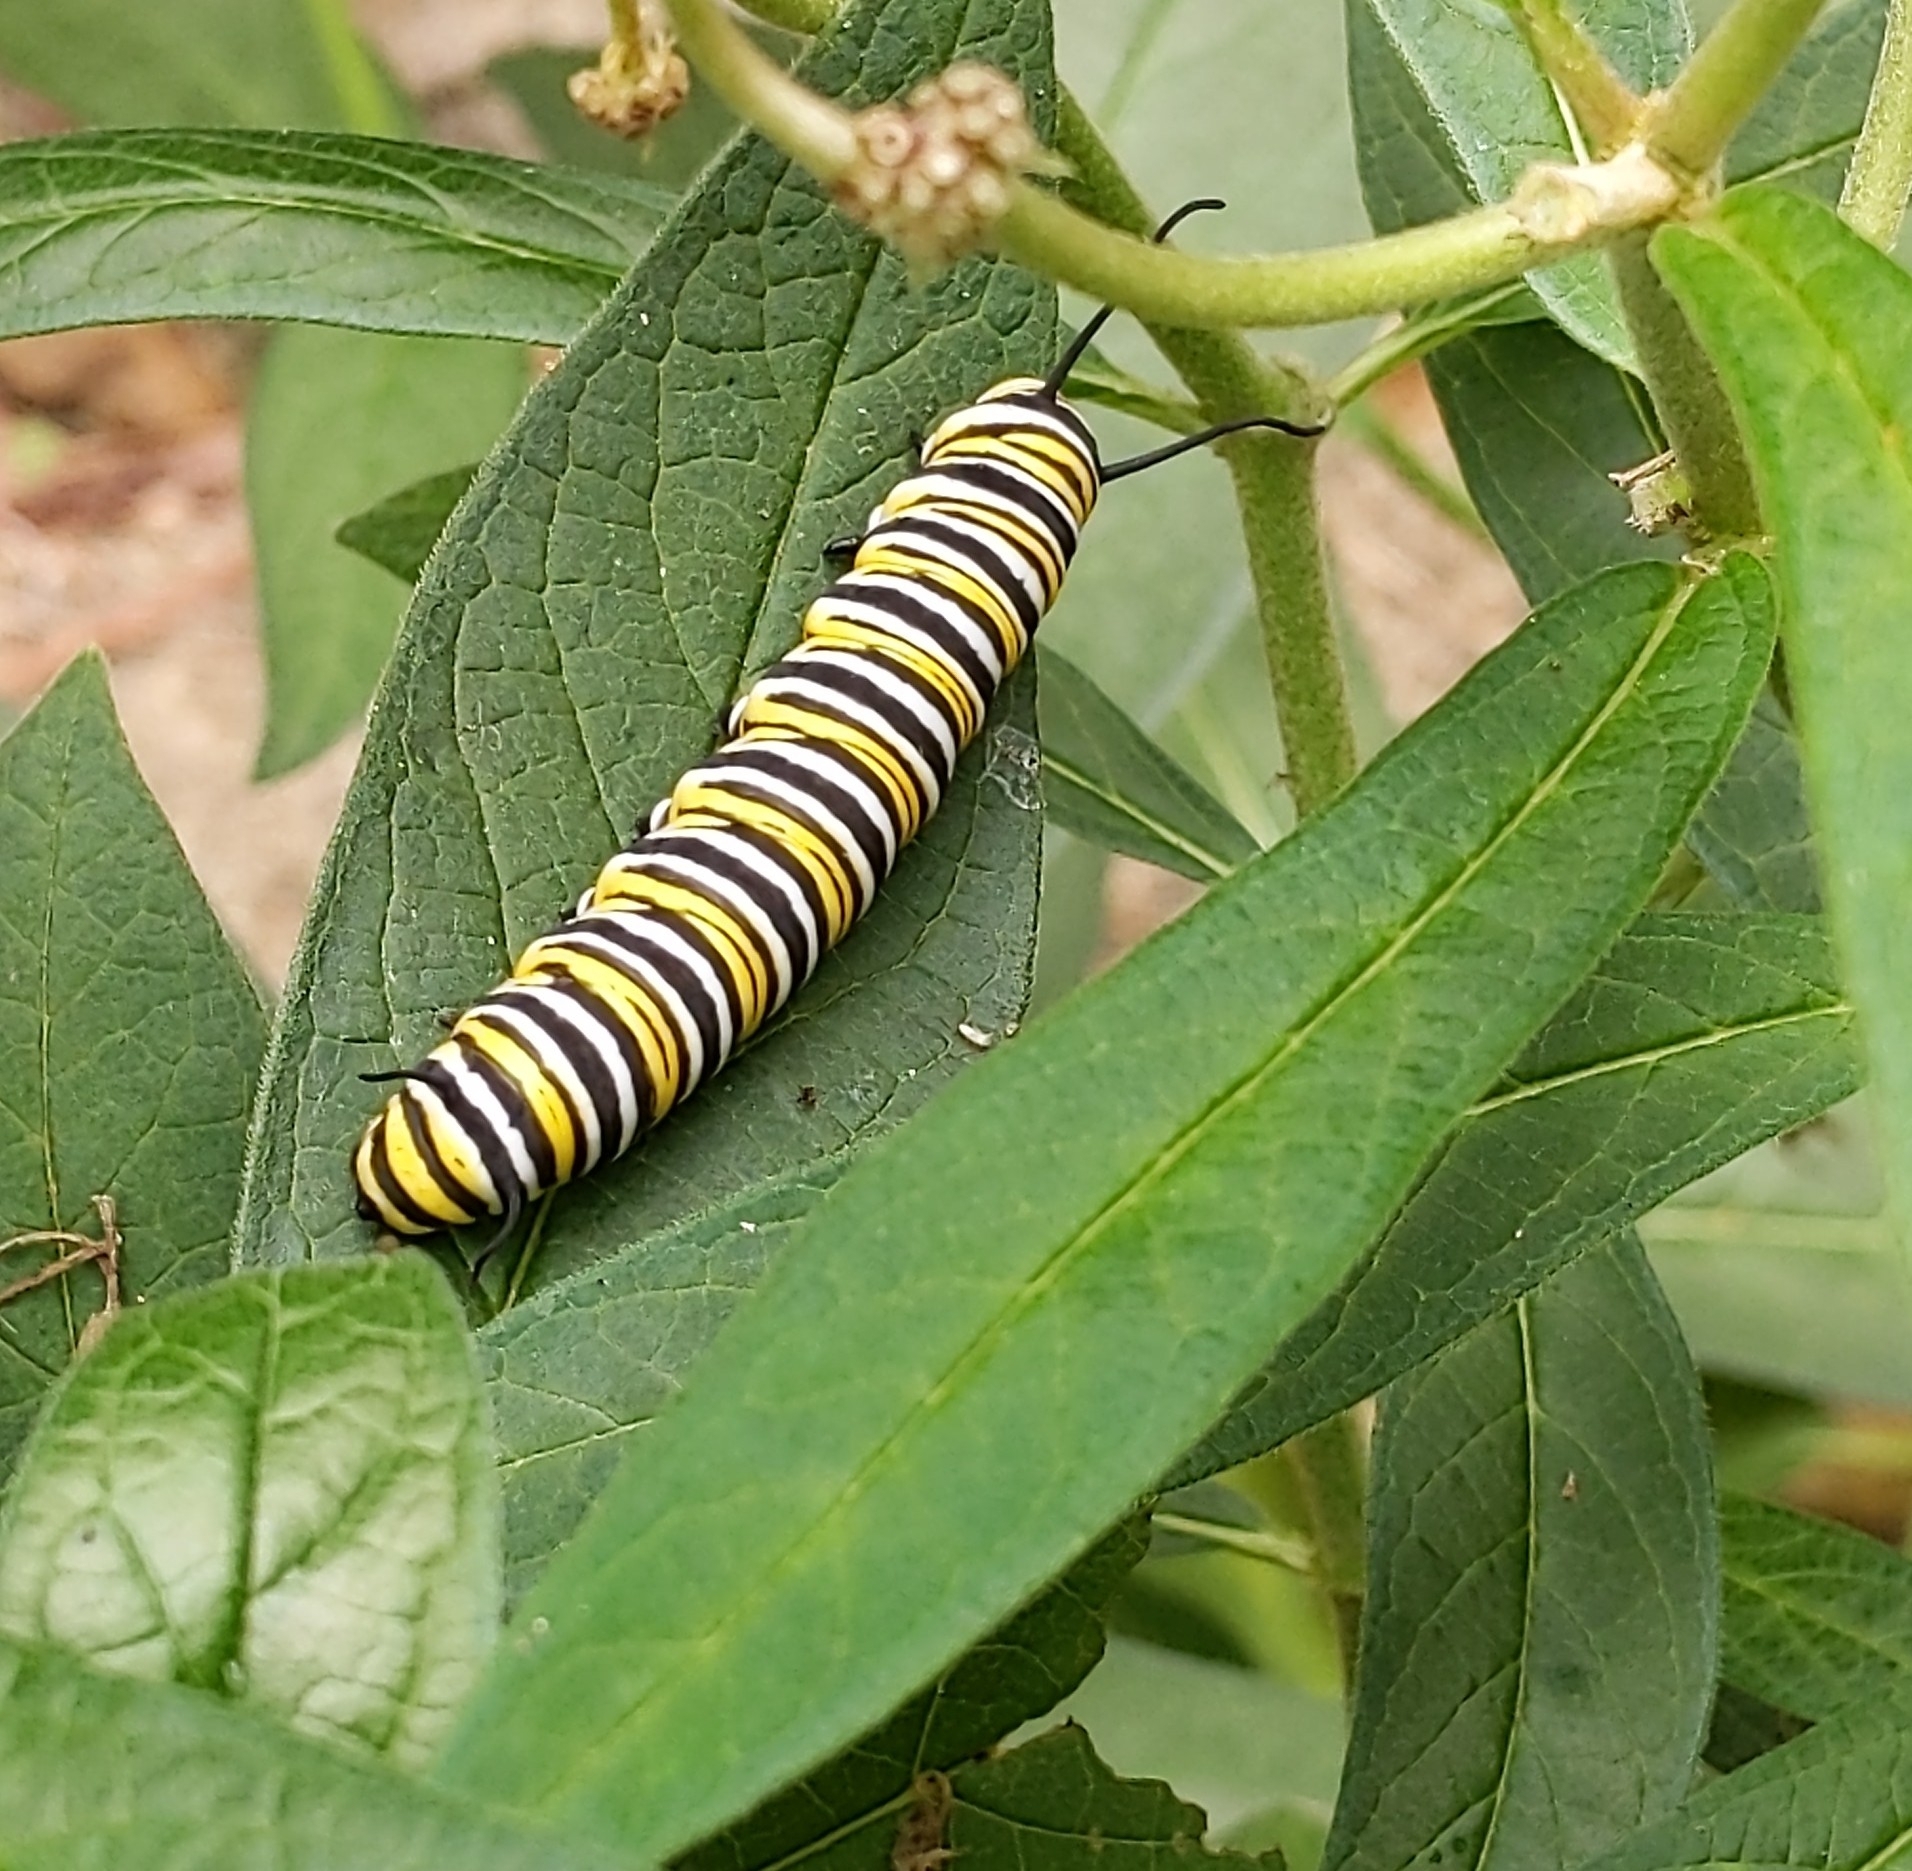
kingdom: Animalia
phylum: Arthropoda
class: Insecta
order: Lepidoptera
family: Nymphalidae
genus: Danaus
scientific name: Danaus plexippus
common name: Monarch
